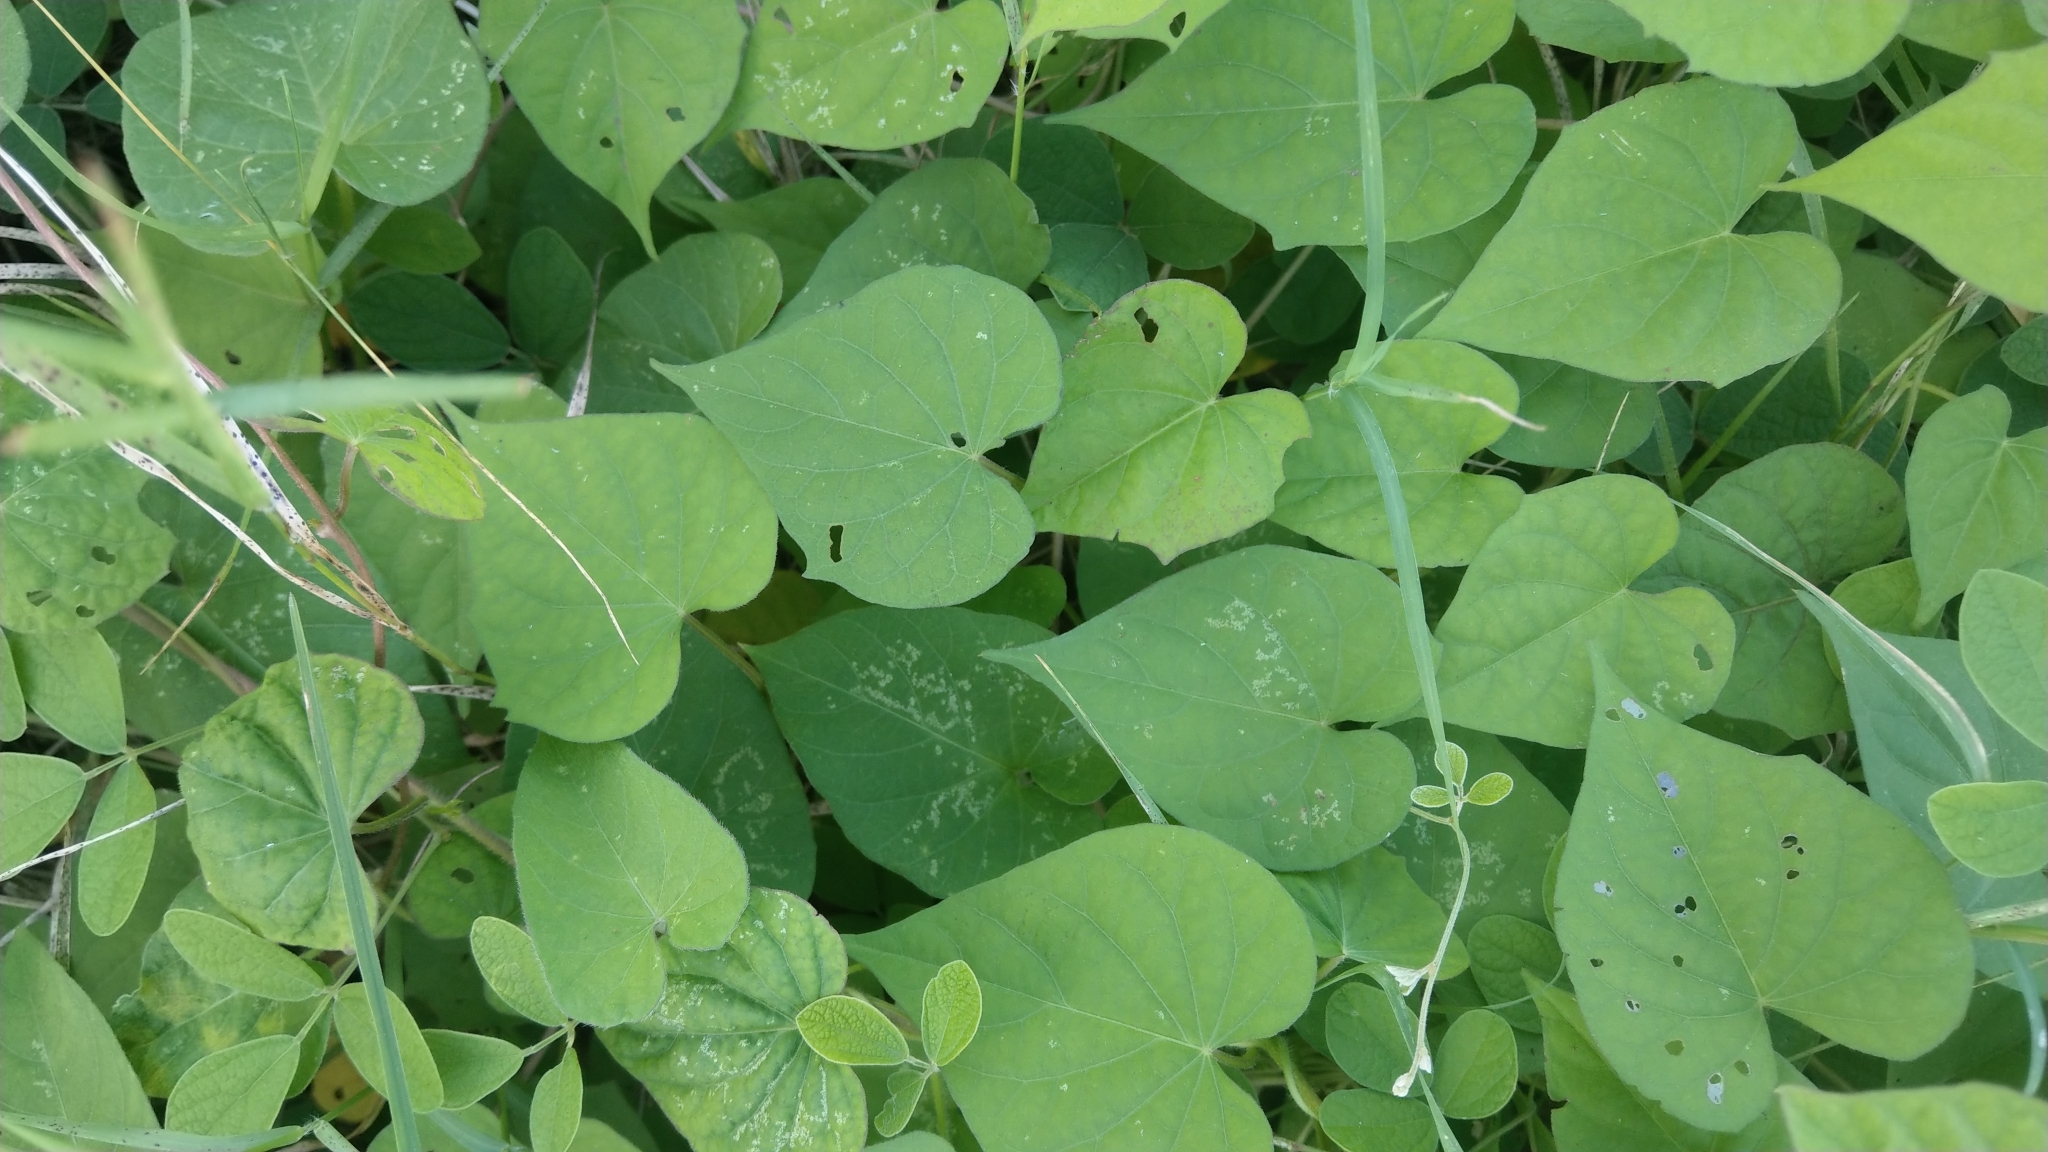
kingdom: Plantae
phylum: Tracheophyta
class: Magnoliopsida
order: Solanales
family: Convolvulaceae
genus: Ipomoea
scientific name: Ipomoea obscura
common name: Obscure morning-glory
